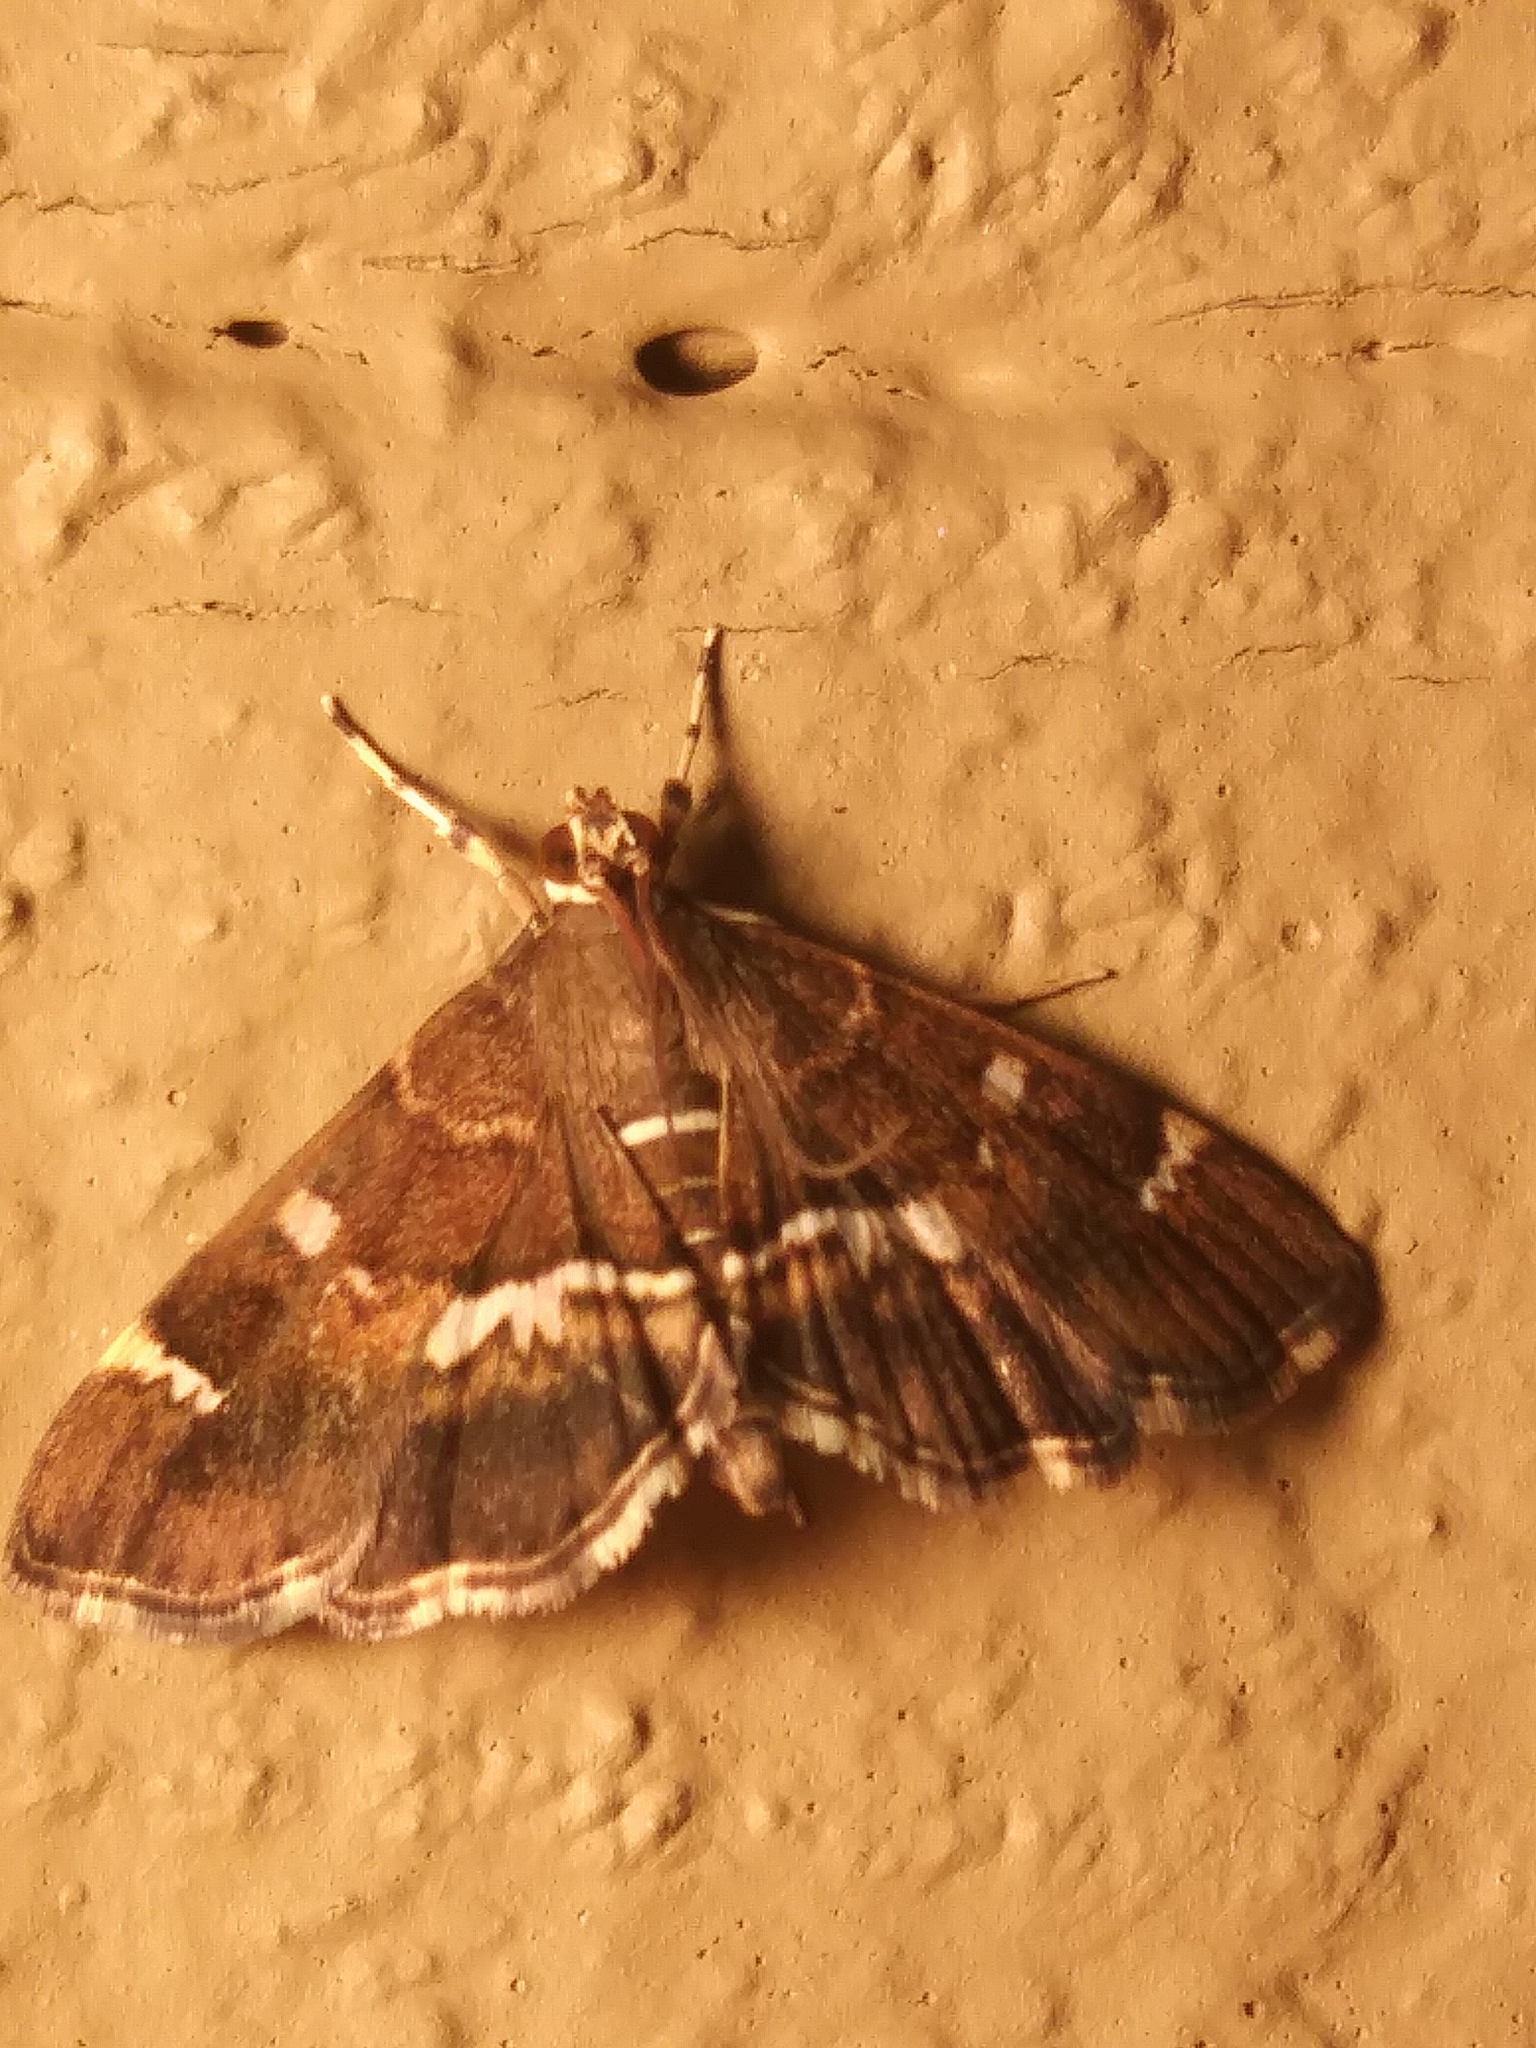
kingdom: Animalia
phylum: Arthropoda
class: Insecta
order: Lepidoptera
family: Crambidae
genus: Hymenia
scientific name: Hymenia perspectalis
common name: Spotted beet webworm
